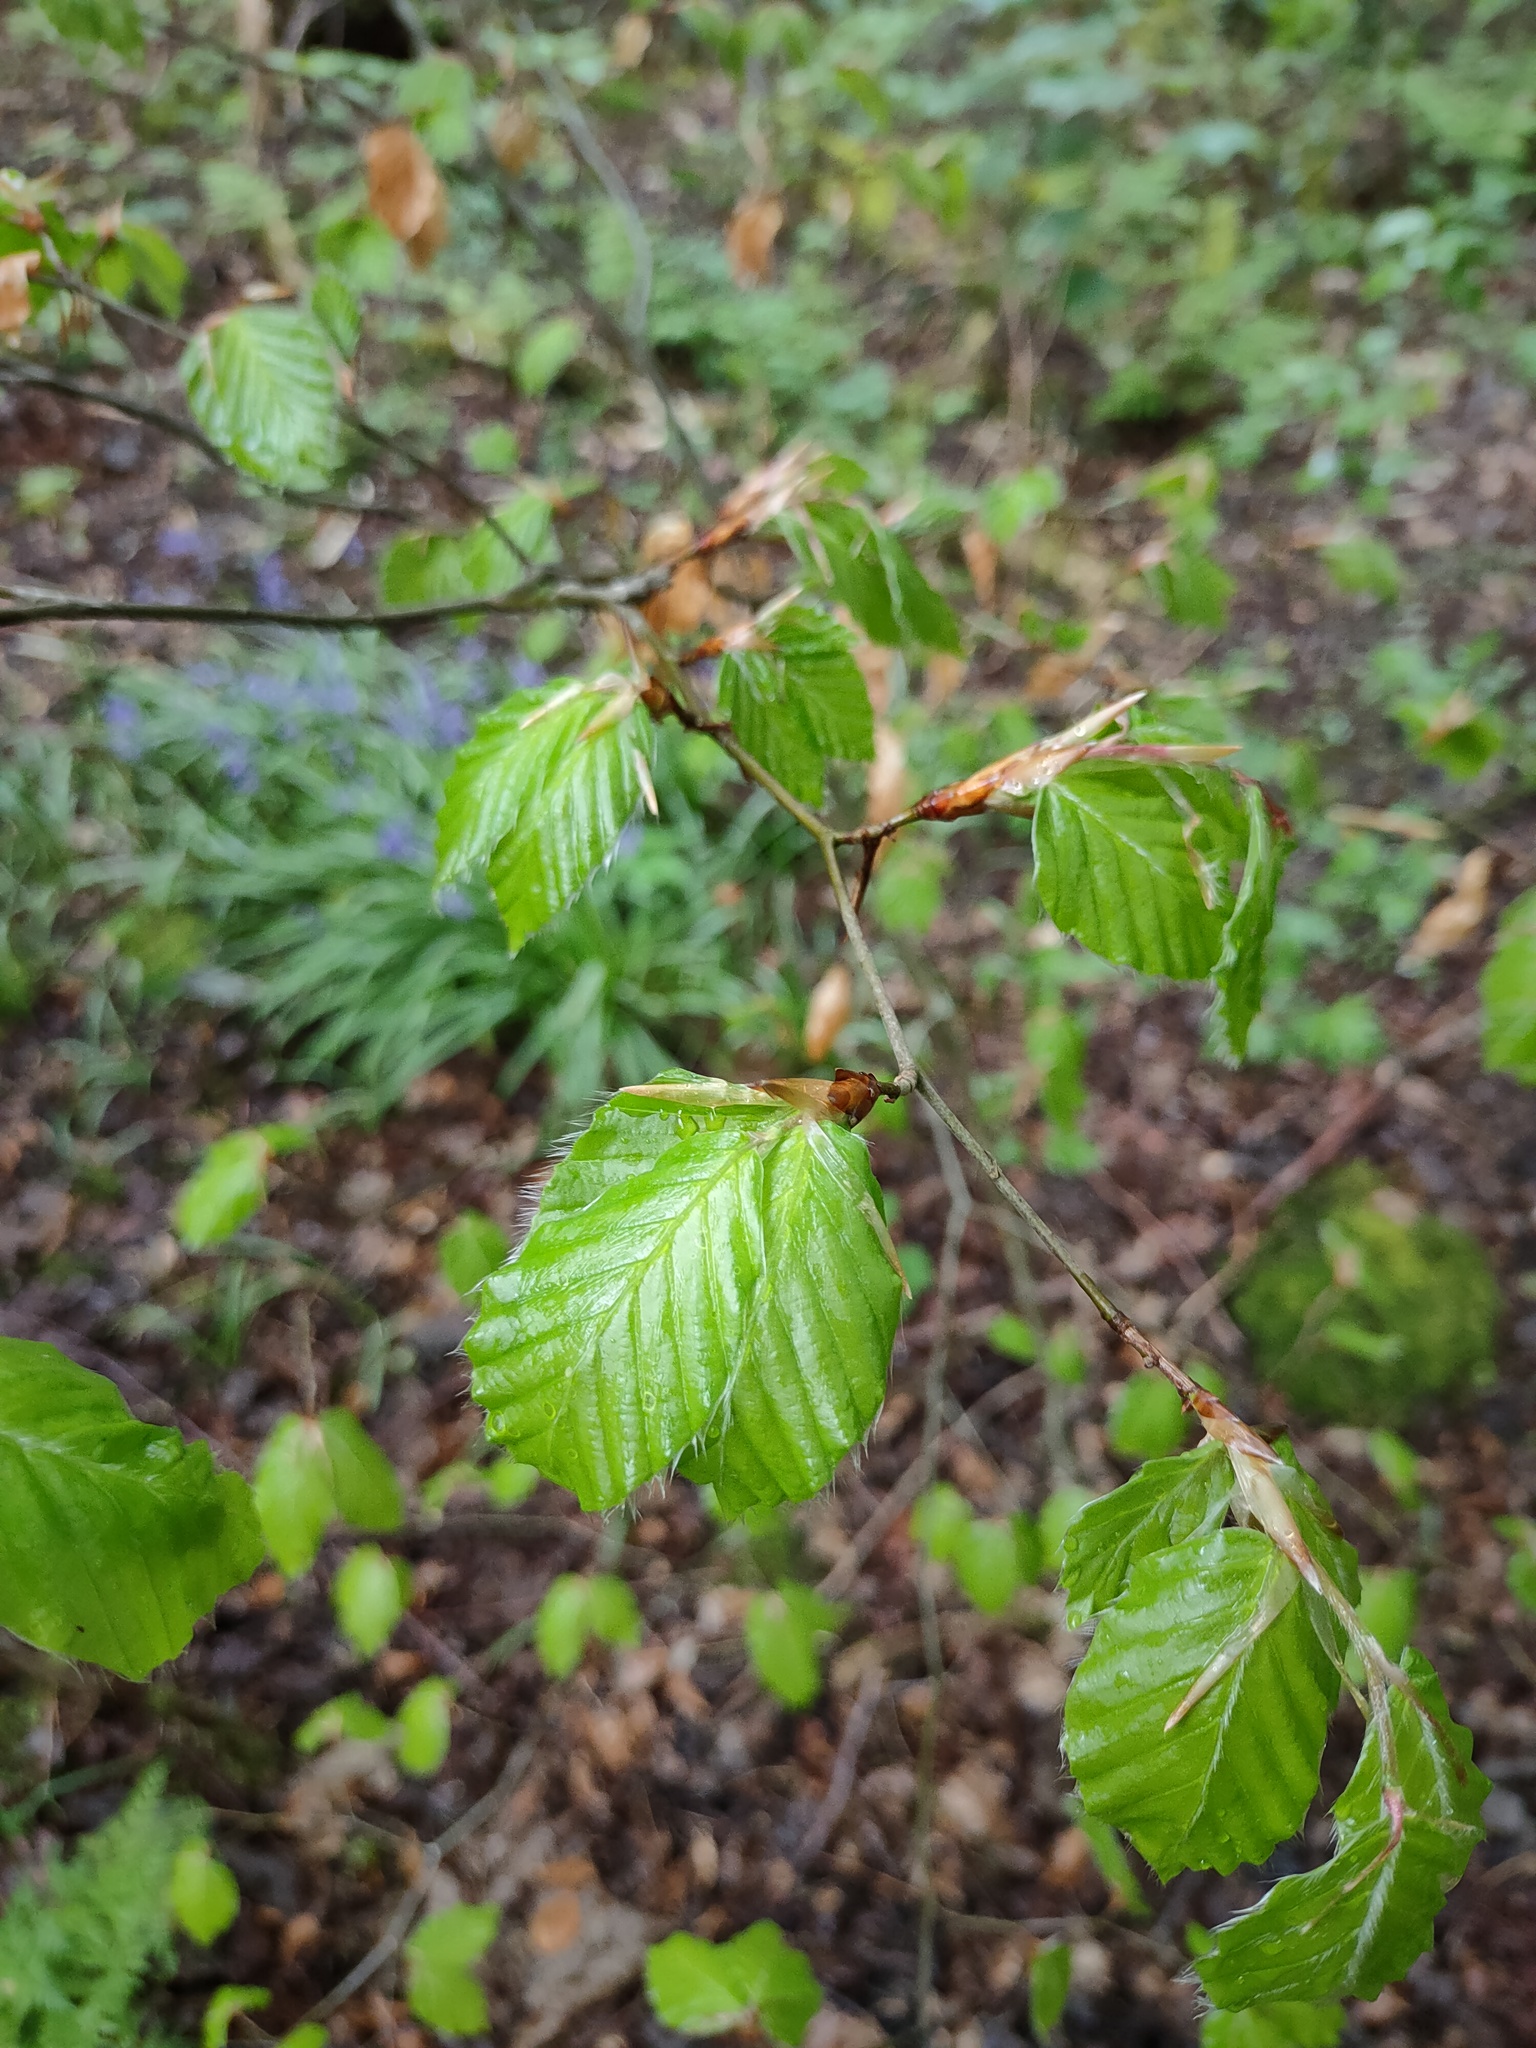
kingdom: Plantae
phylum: Tracheophyta
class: Magnoliopsida
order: Fagales
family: Fagaceae
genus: Fagus
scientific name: Fagus sylvatica
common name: Beech
